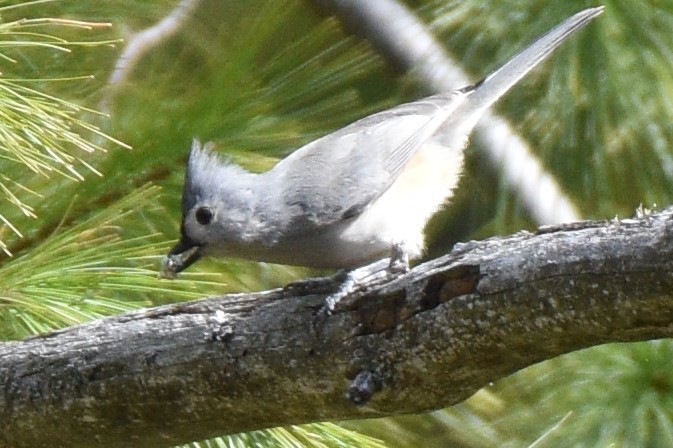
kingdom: Animalia
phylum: Chordata
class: Aves
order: Passeriformes
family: Paridae
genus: Baeolophus
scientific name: Baeolophus bicolor
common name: Tufted titmouse
